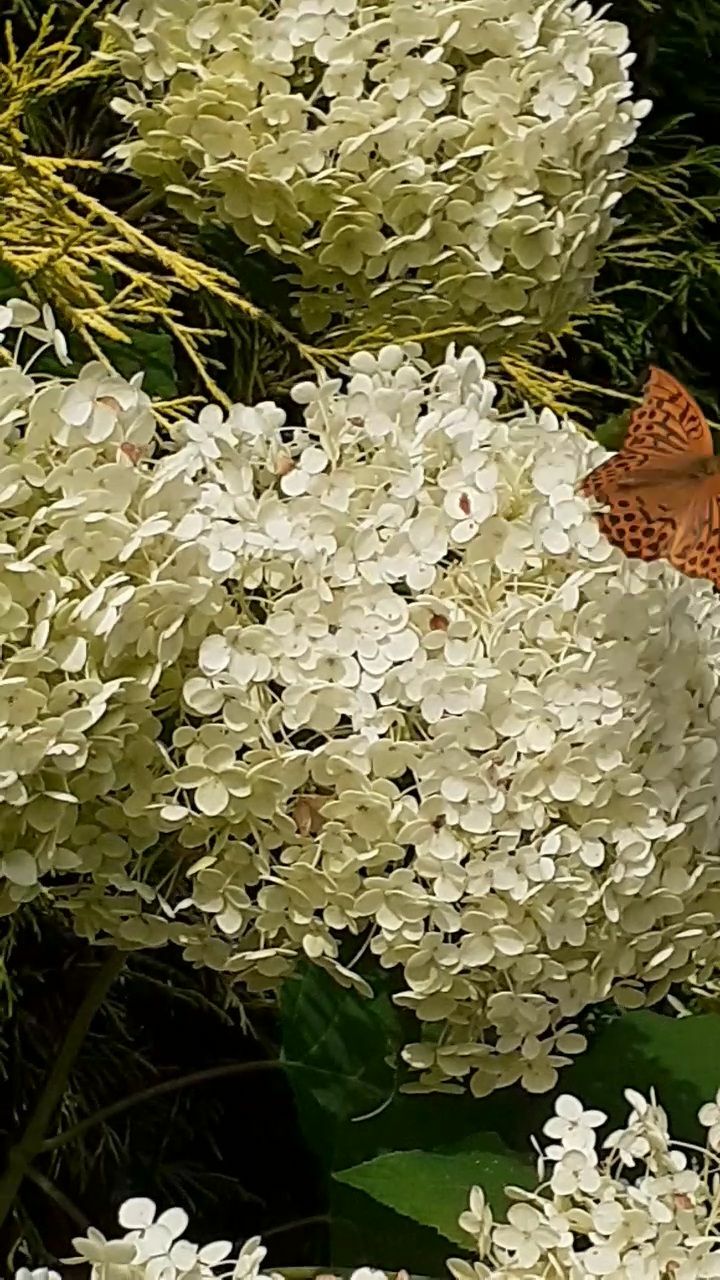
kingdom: Animalia
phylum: Arthropoda
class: Insecta
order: Lepidoptera
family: Nymphalidae
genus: Argynnis
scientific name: Argynnis paphia
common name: Silver-washed fritillary
